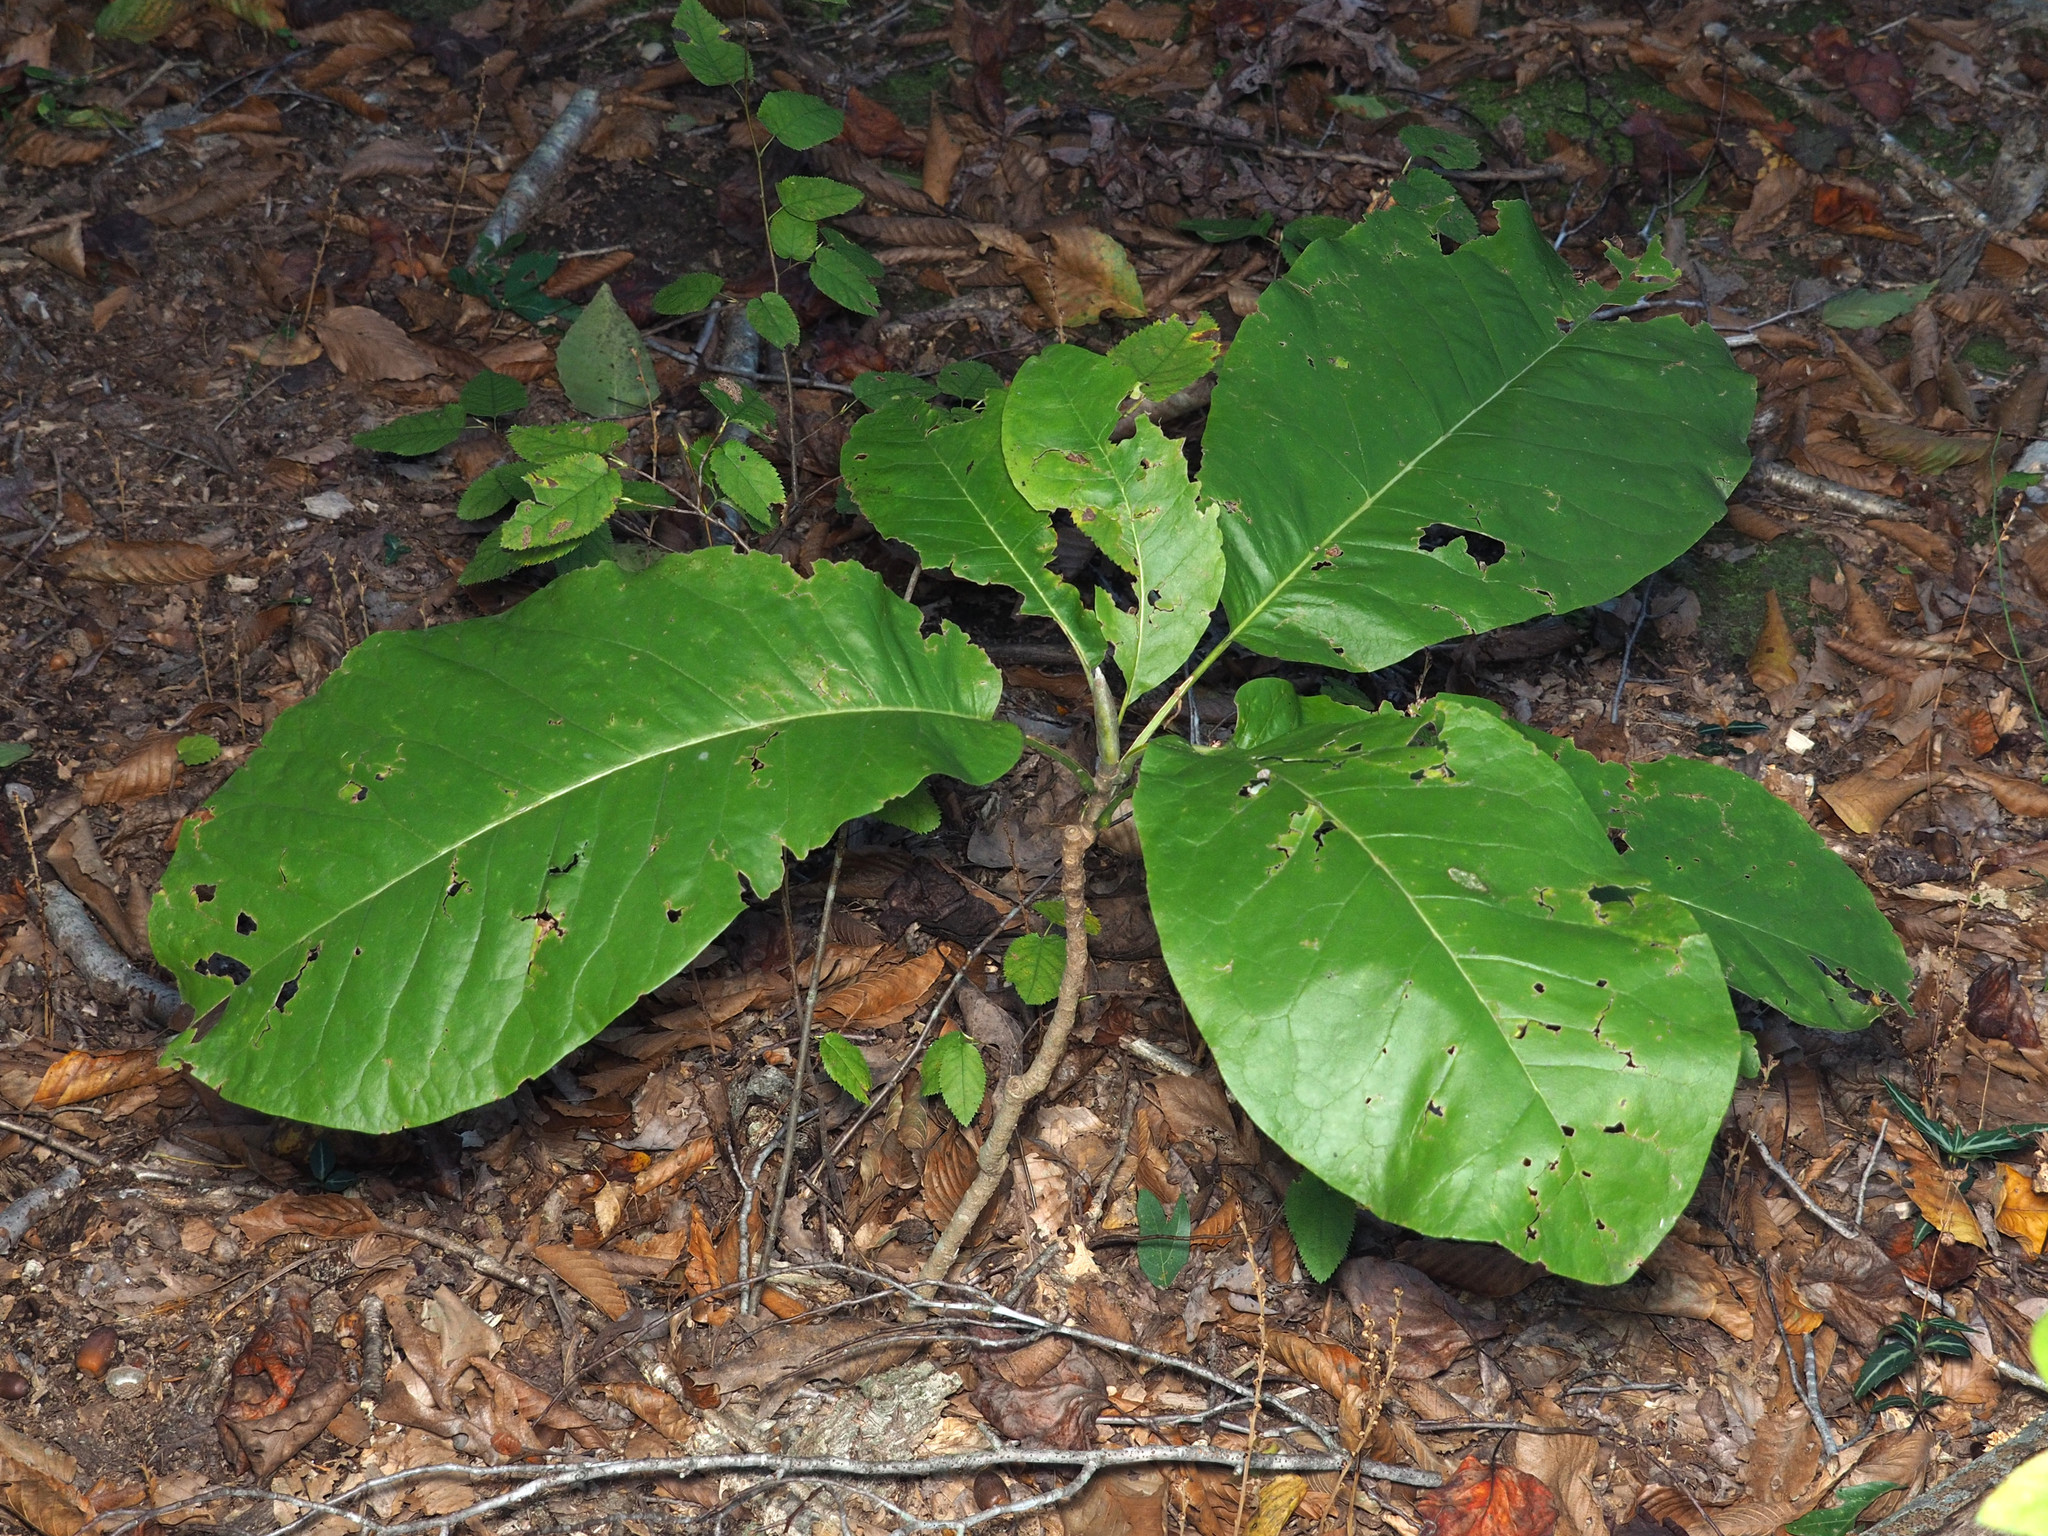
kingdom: Plantae
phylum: Tracheophyta
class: Magnoliopsida
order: Magnoliales
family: Magnoliaceae
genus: Magnolia
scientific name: Magnolia macrophylla
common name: Big-leaf magnolia
